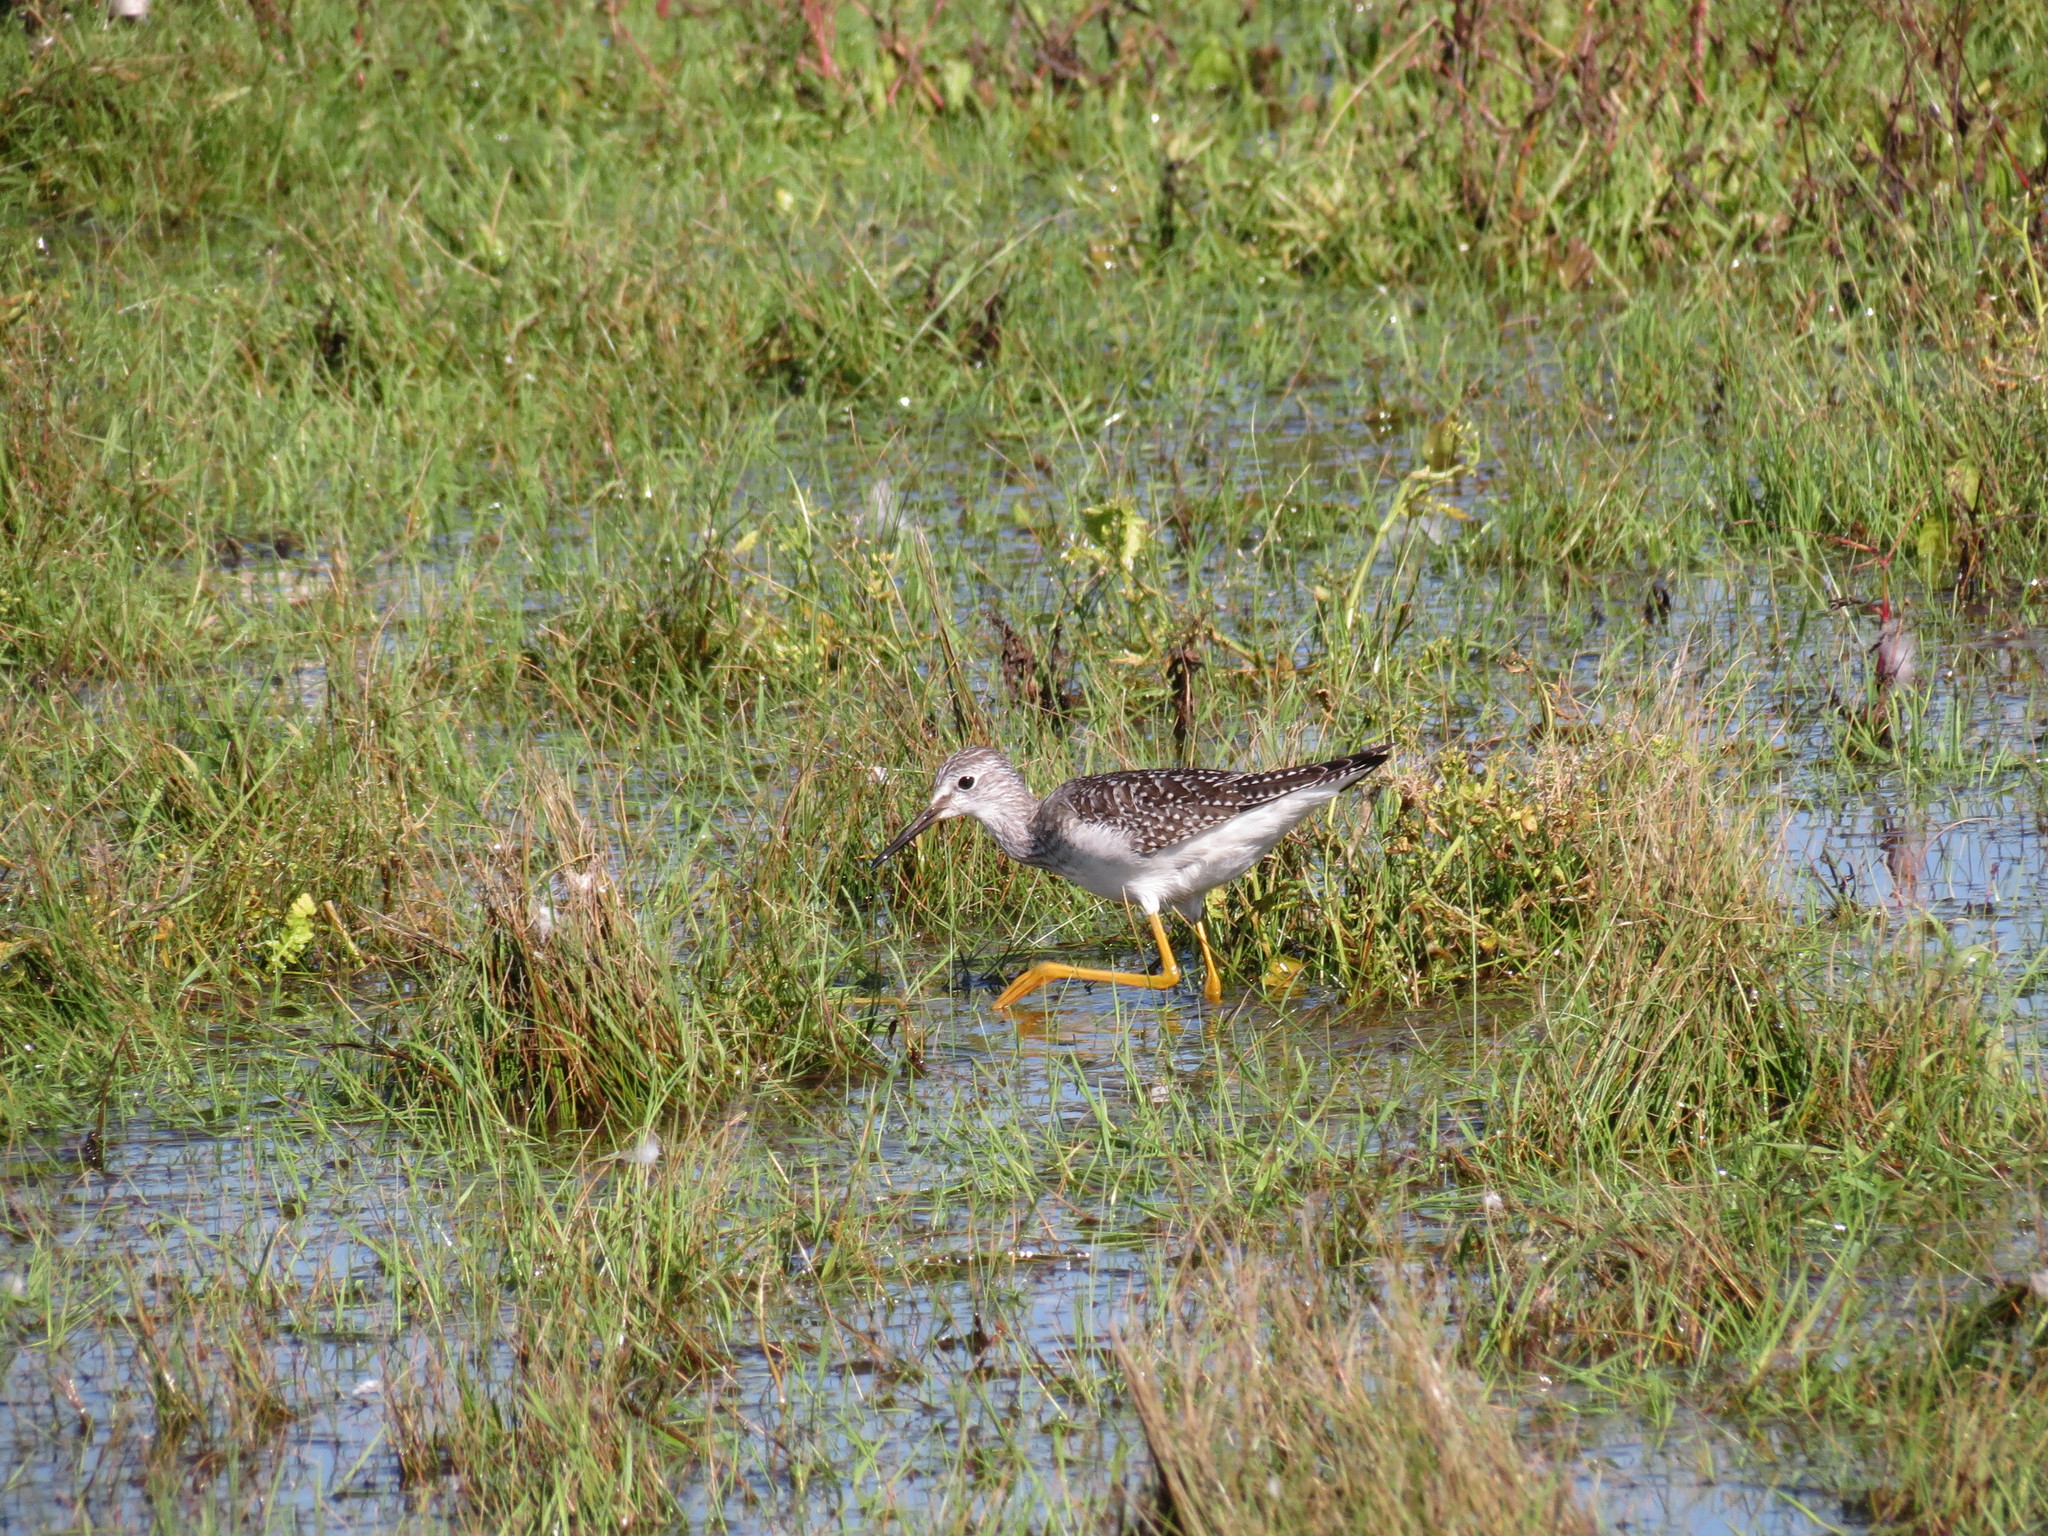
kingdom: Animalia
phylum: Chordata
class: Aves
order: Charadriiformes
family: Scolopacidae
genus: Tringa
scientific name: Tringa flavipes
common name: Lesser yellowlegs
